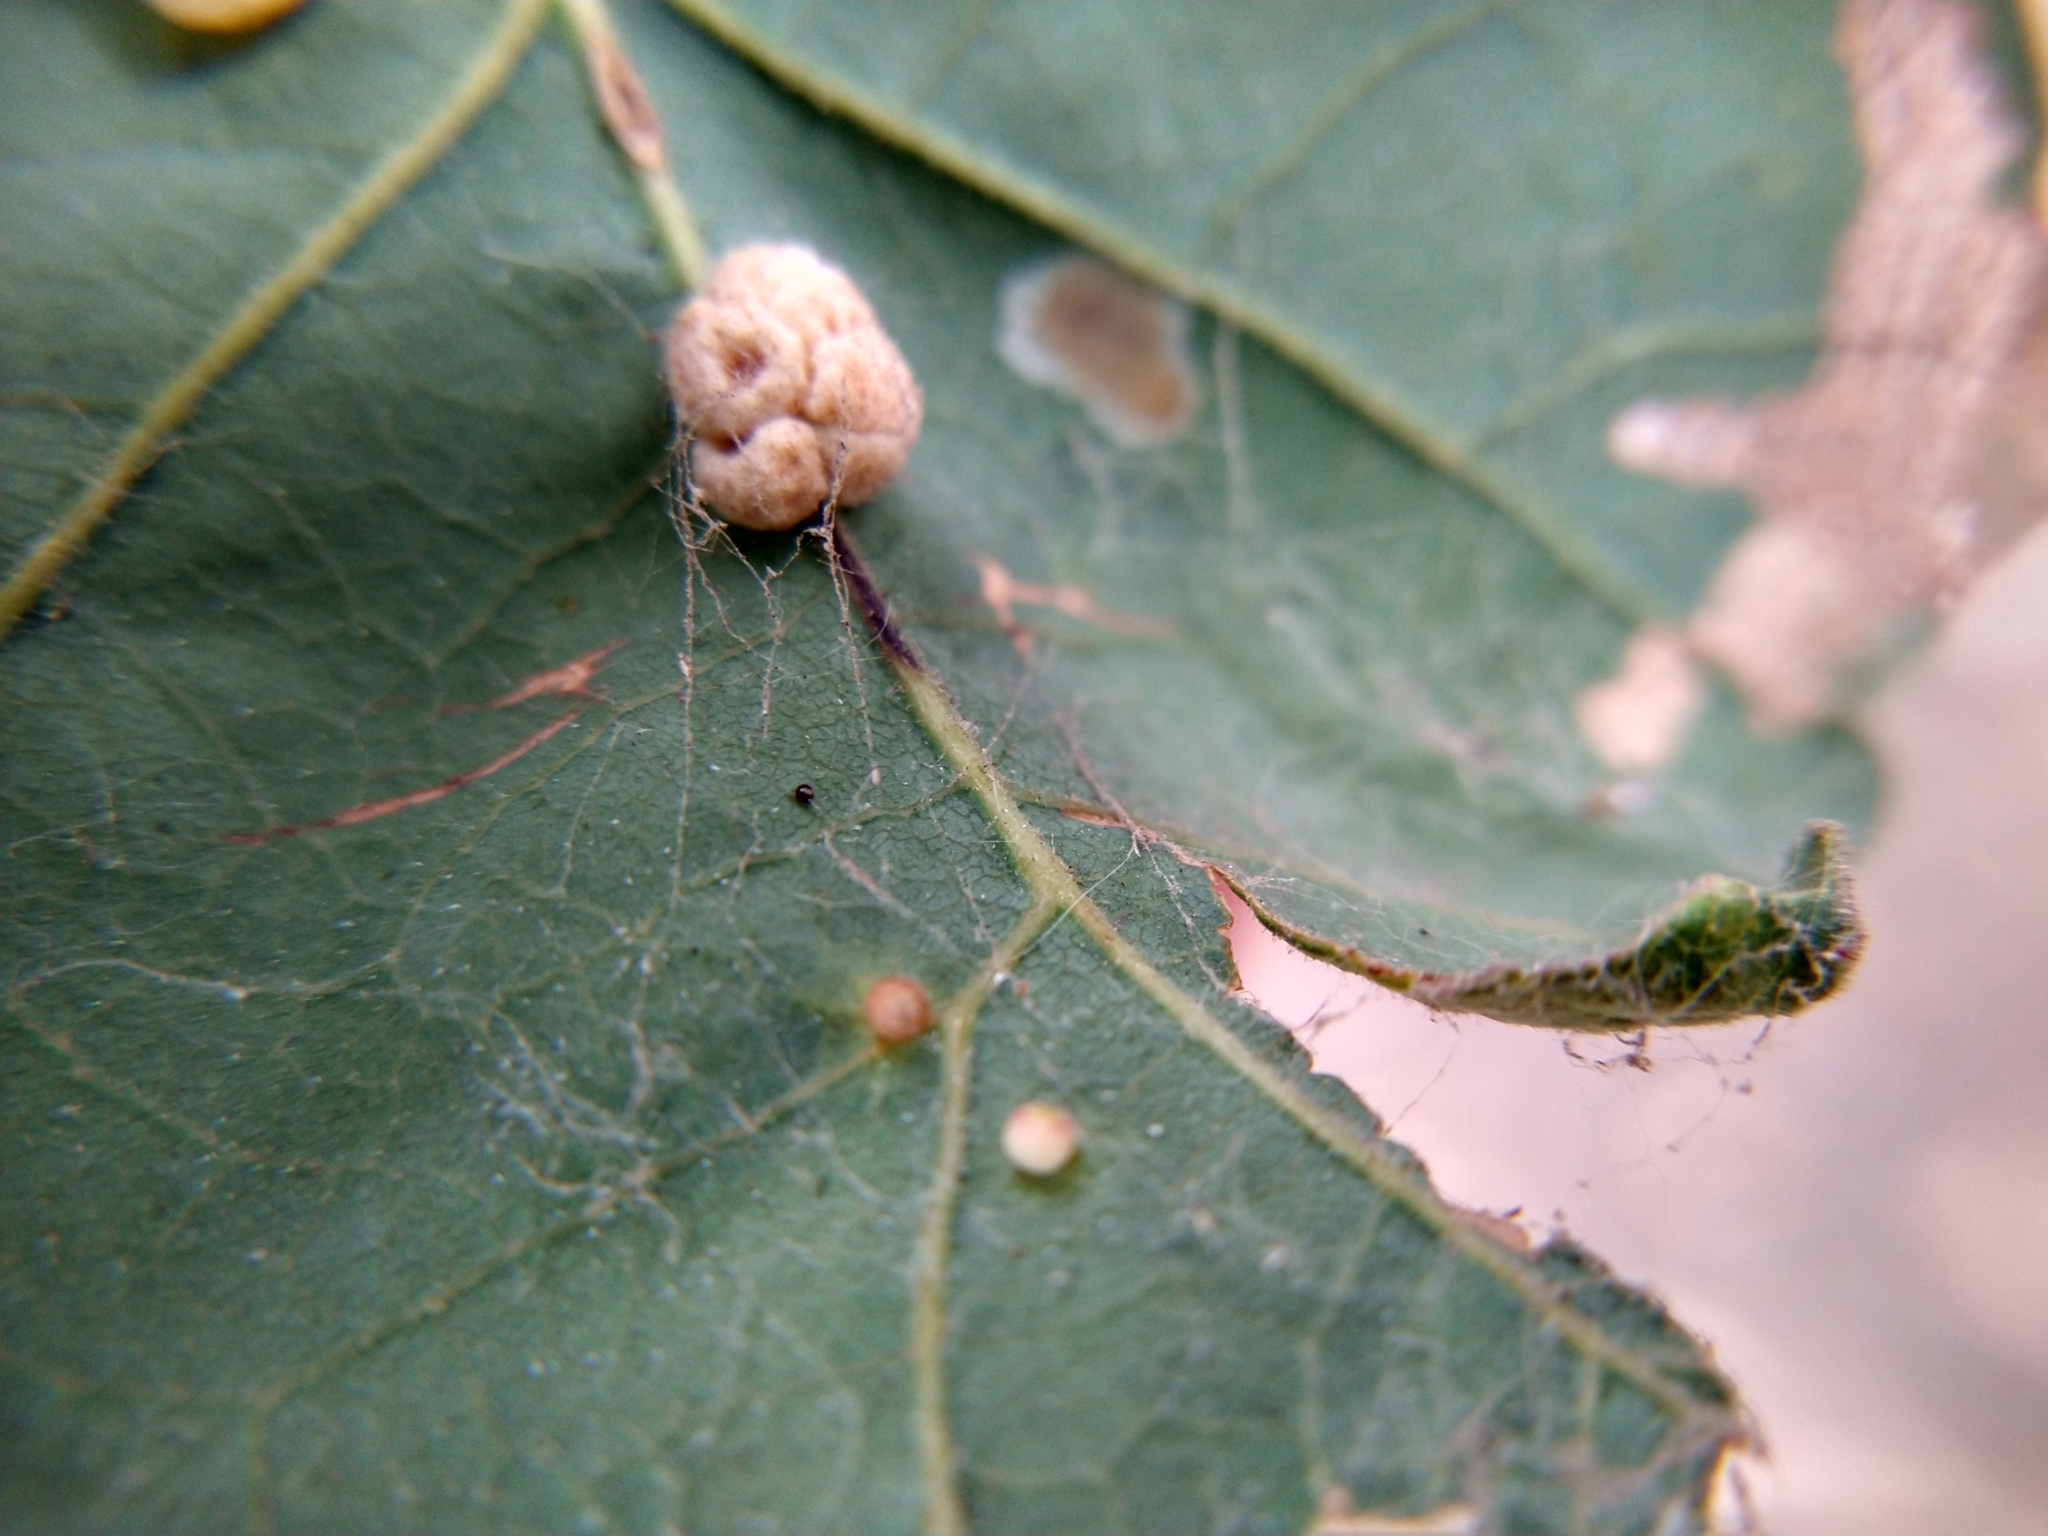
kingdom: Animalia
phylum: Arthropoda
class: Insecta
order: Hymenoptera
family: Cynipidae
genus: Andricus
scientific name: Andricus
